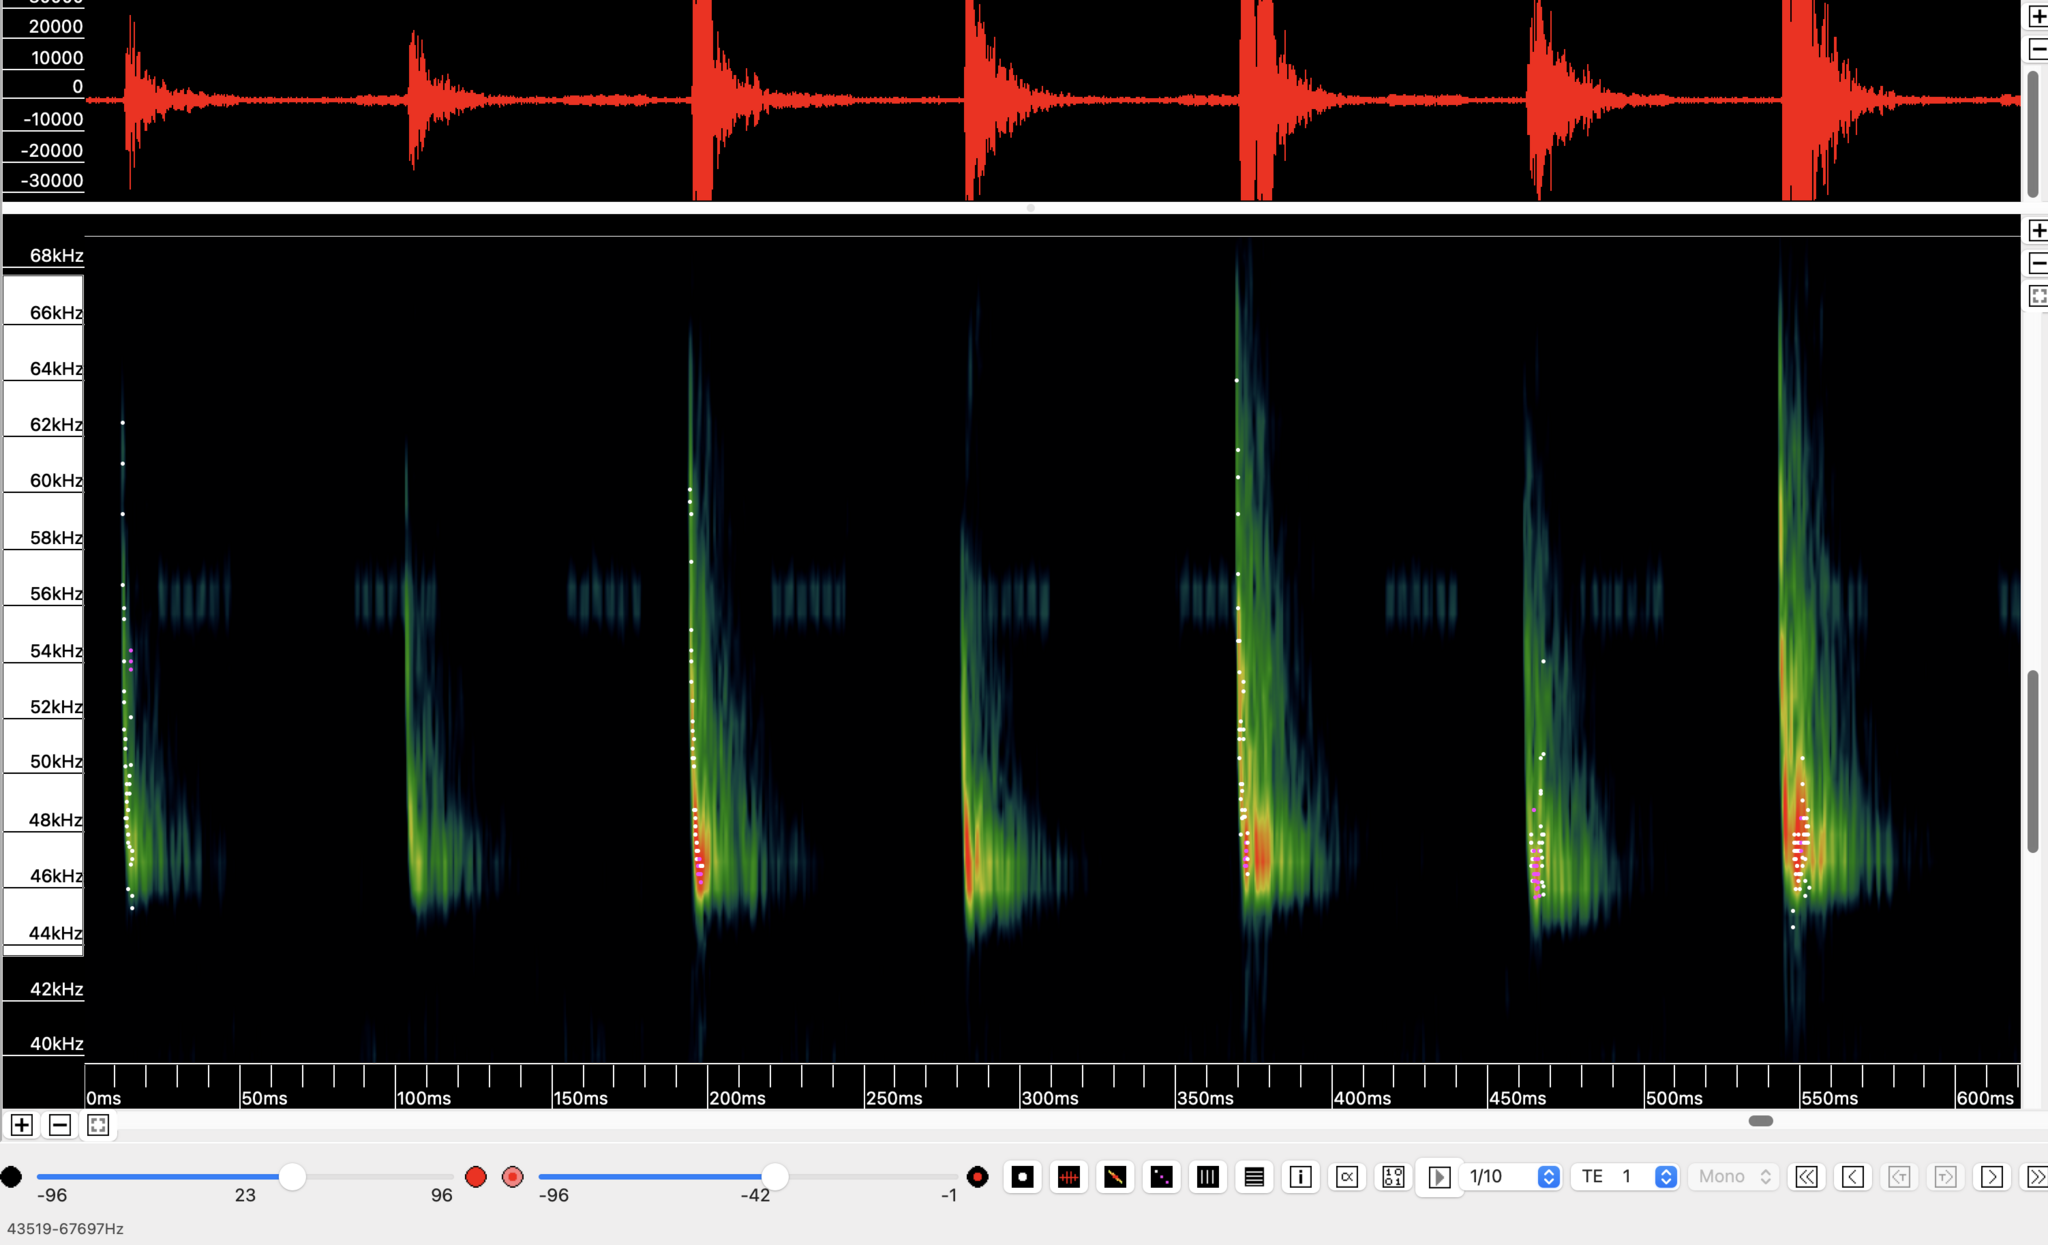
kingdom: Animalia
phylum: Chordata
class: Mammalia
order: Chiroptera
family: Vespertilionidae
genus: Pipistrellus
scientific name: Pipistrellus pipistrellus
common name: Common pipistrelle
